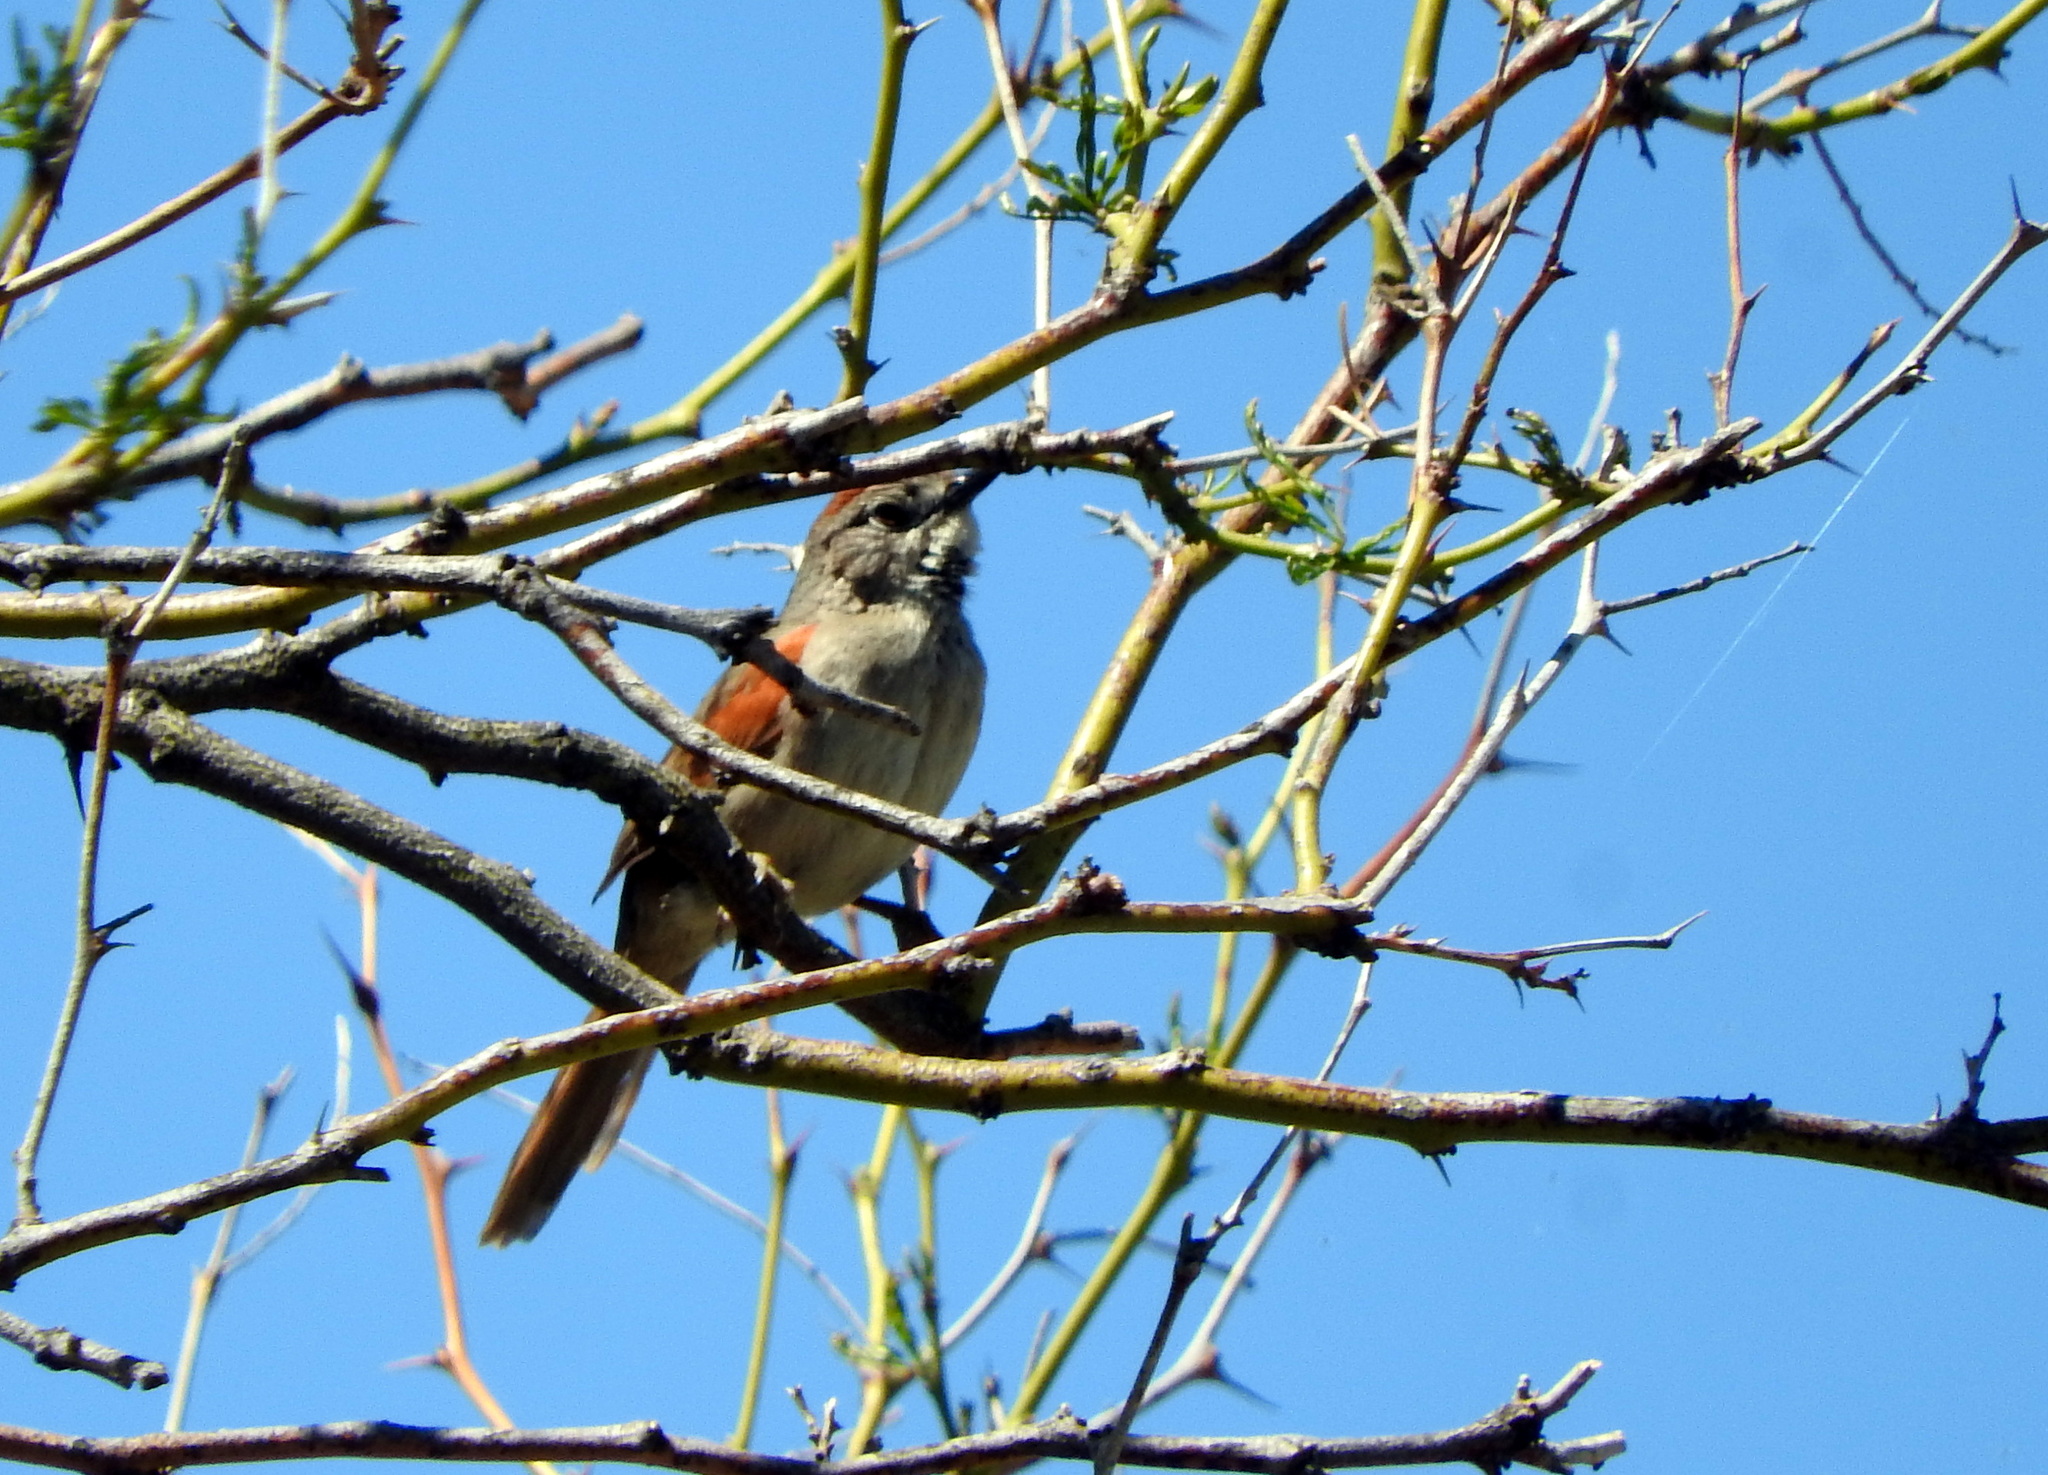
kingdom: Animalia
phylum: Chordata
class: Aves
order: Passeriformes
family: Furnariidae
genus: Synallaxis
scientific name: Synallaxis albescens
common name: Pale-breasted spinetail
